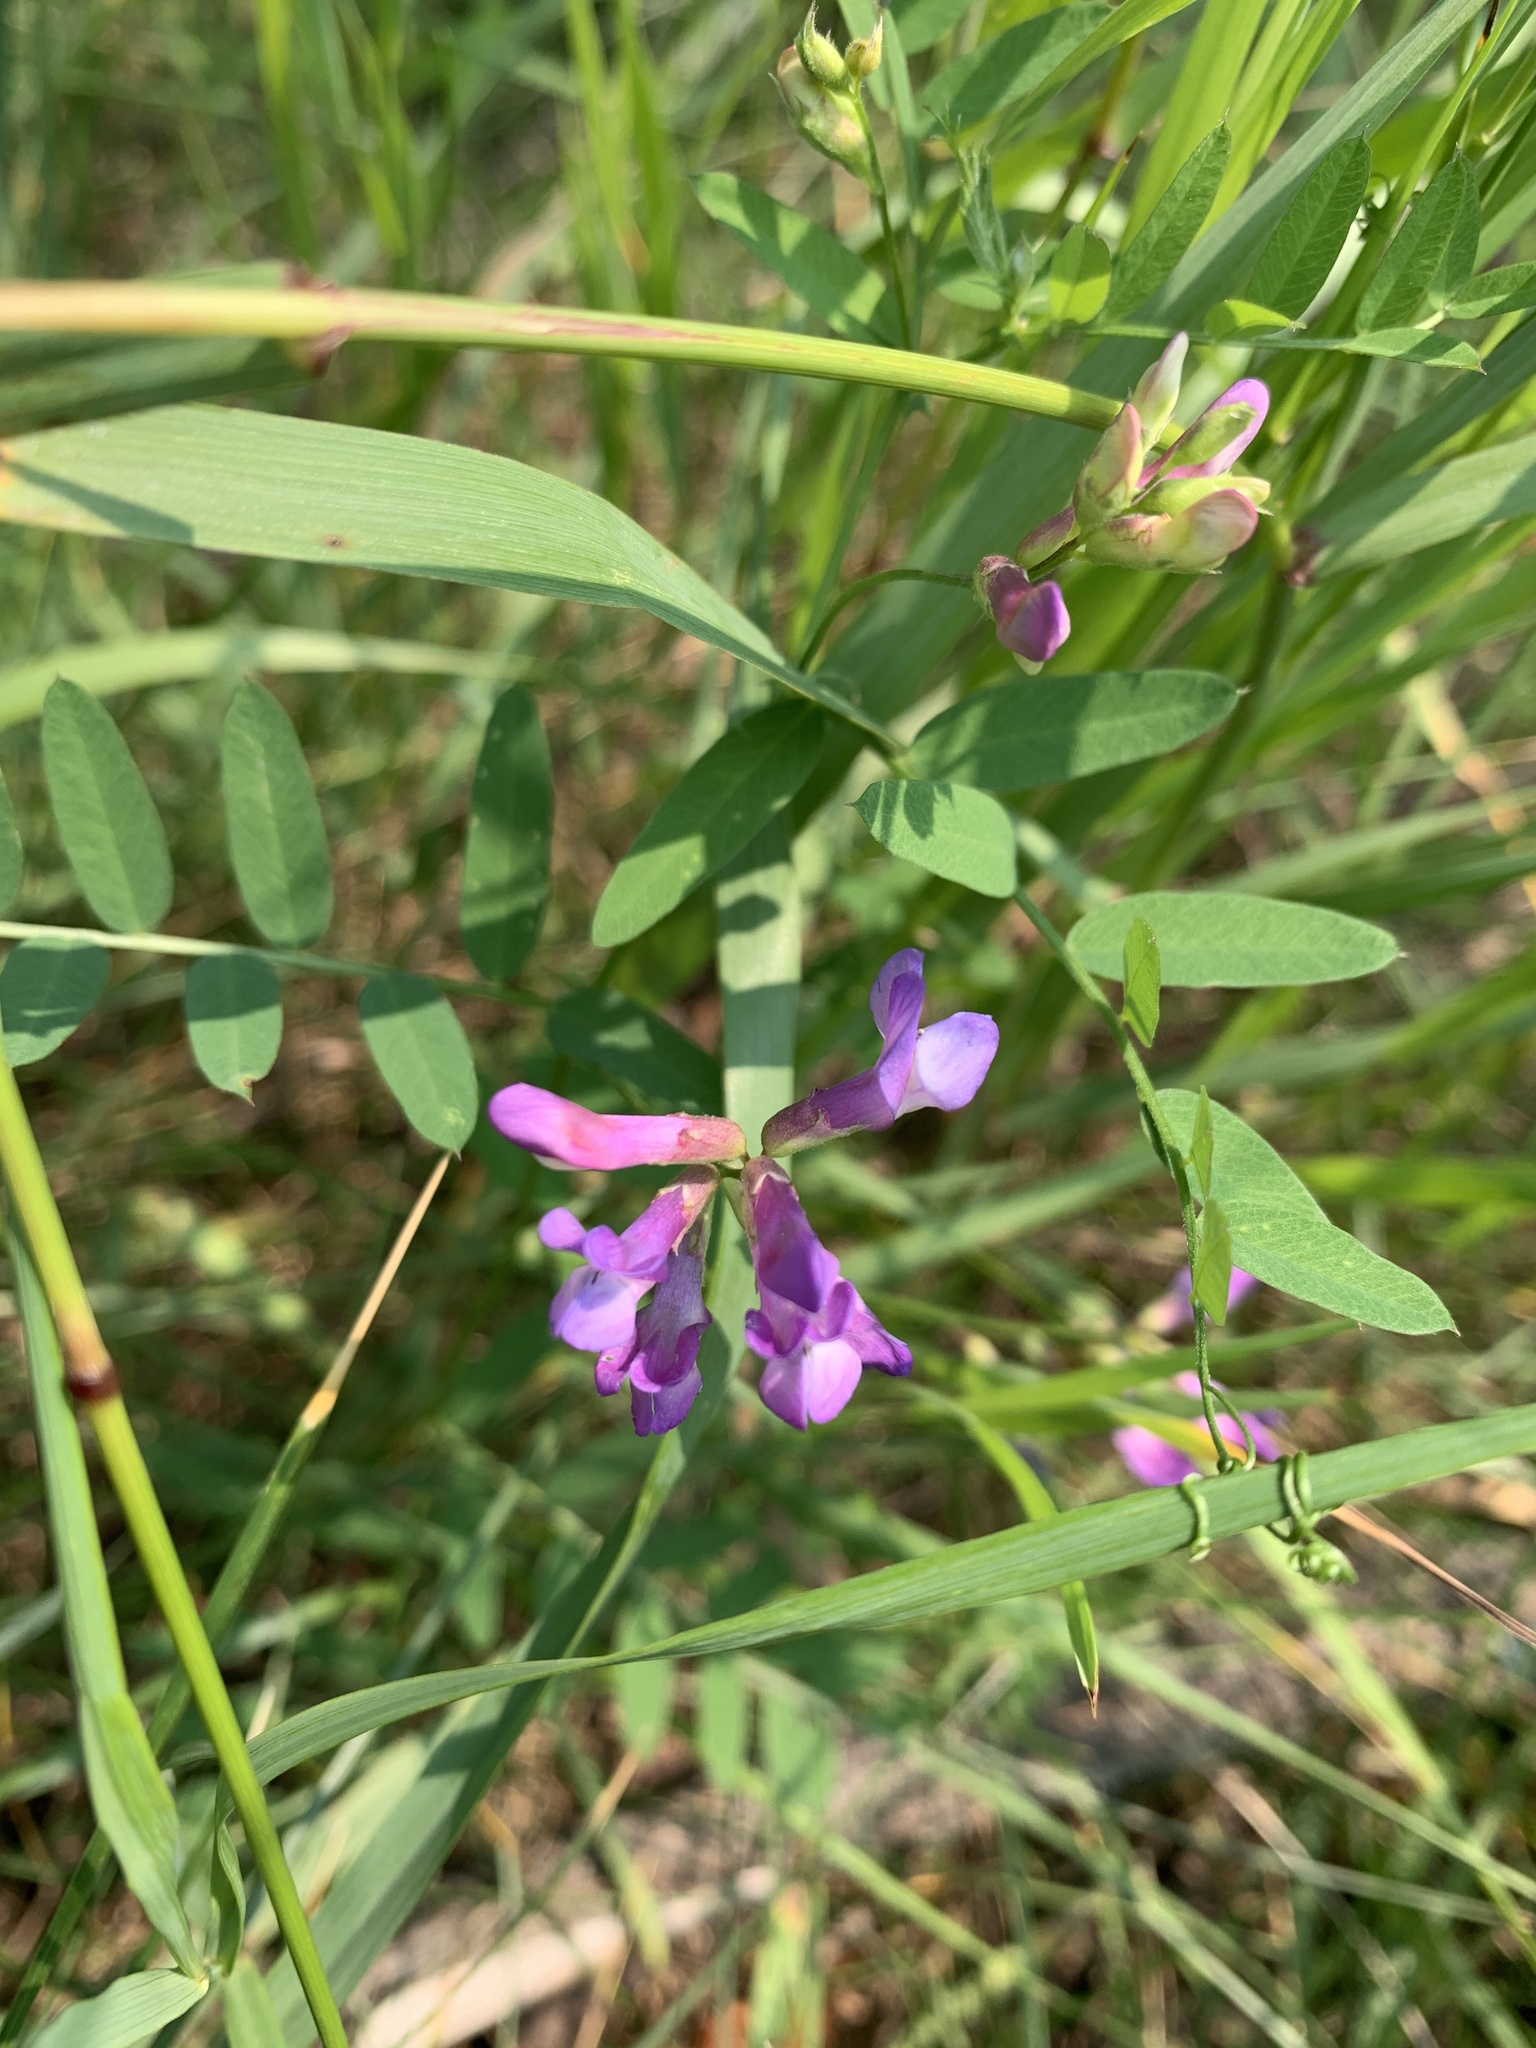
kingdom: Plantae
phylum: Tracheophyta
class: Magnoliopsida
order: Fabales
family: Fabaceae
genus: Vicia
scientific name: Vicia americana
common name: American vetch
